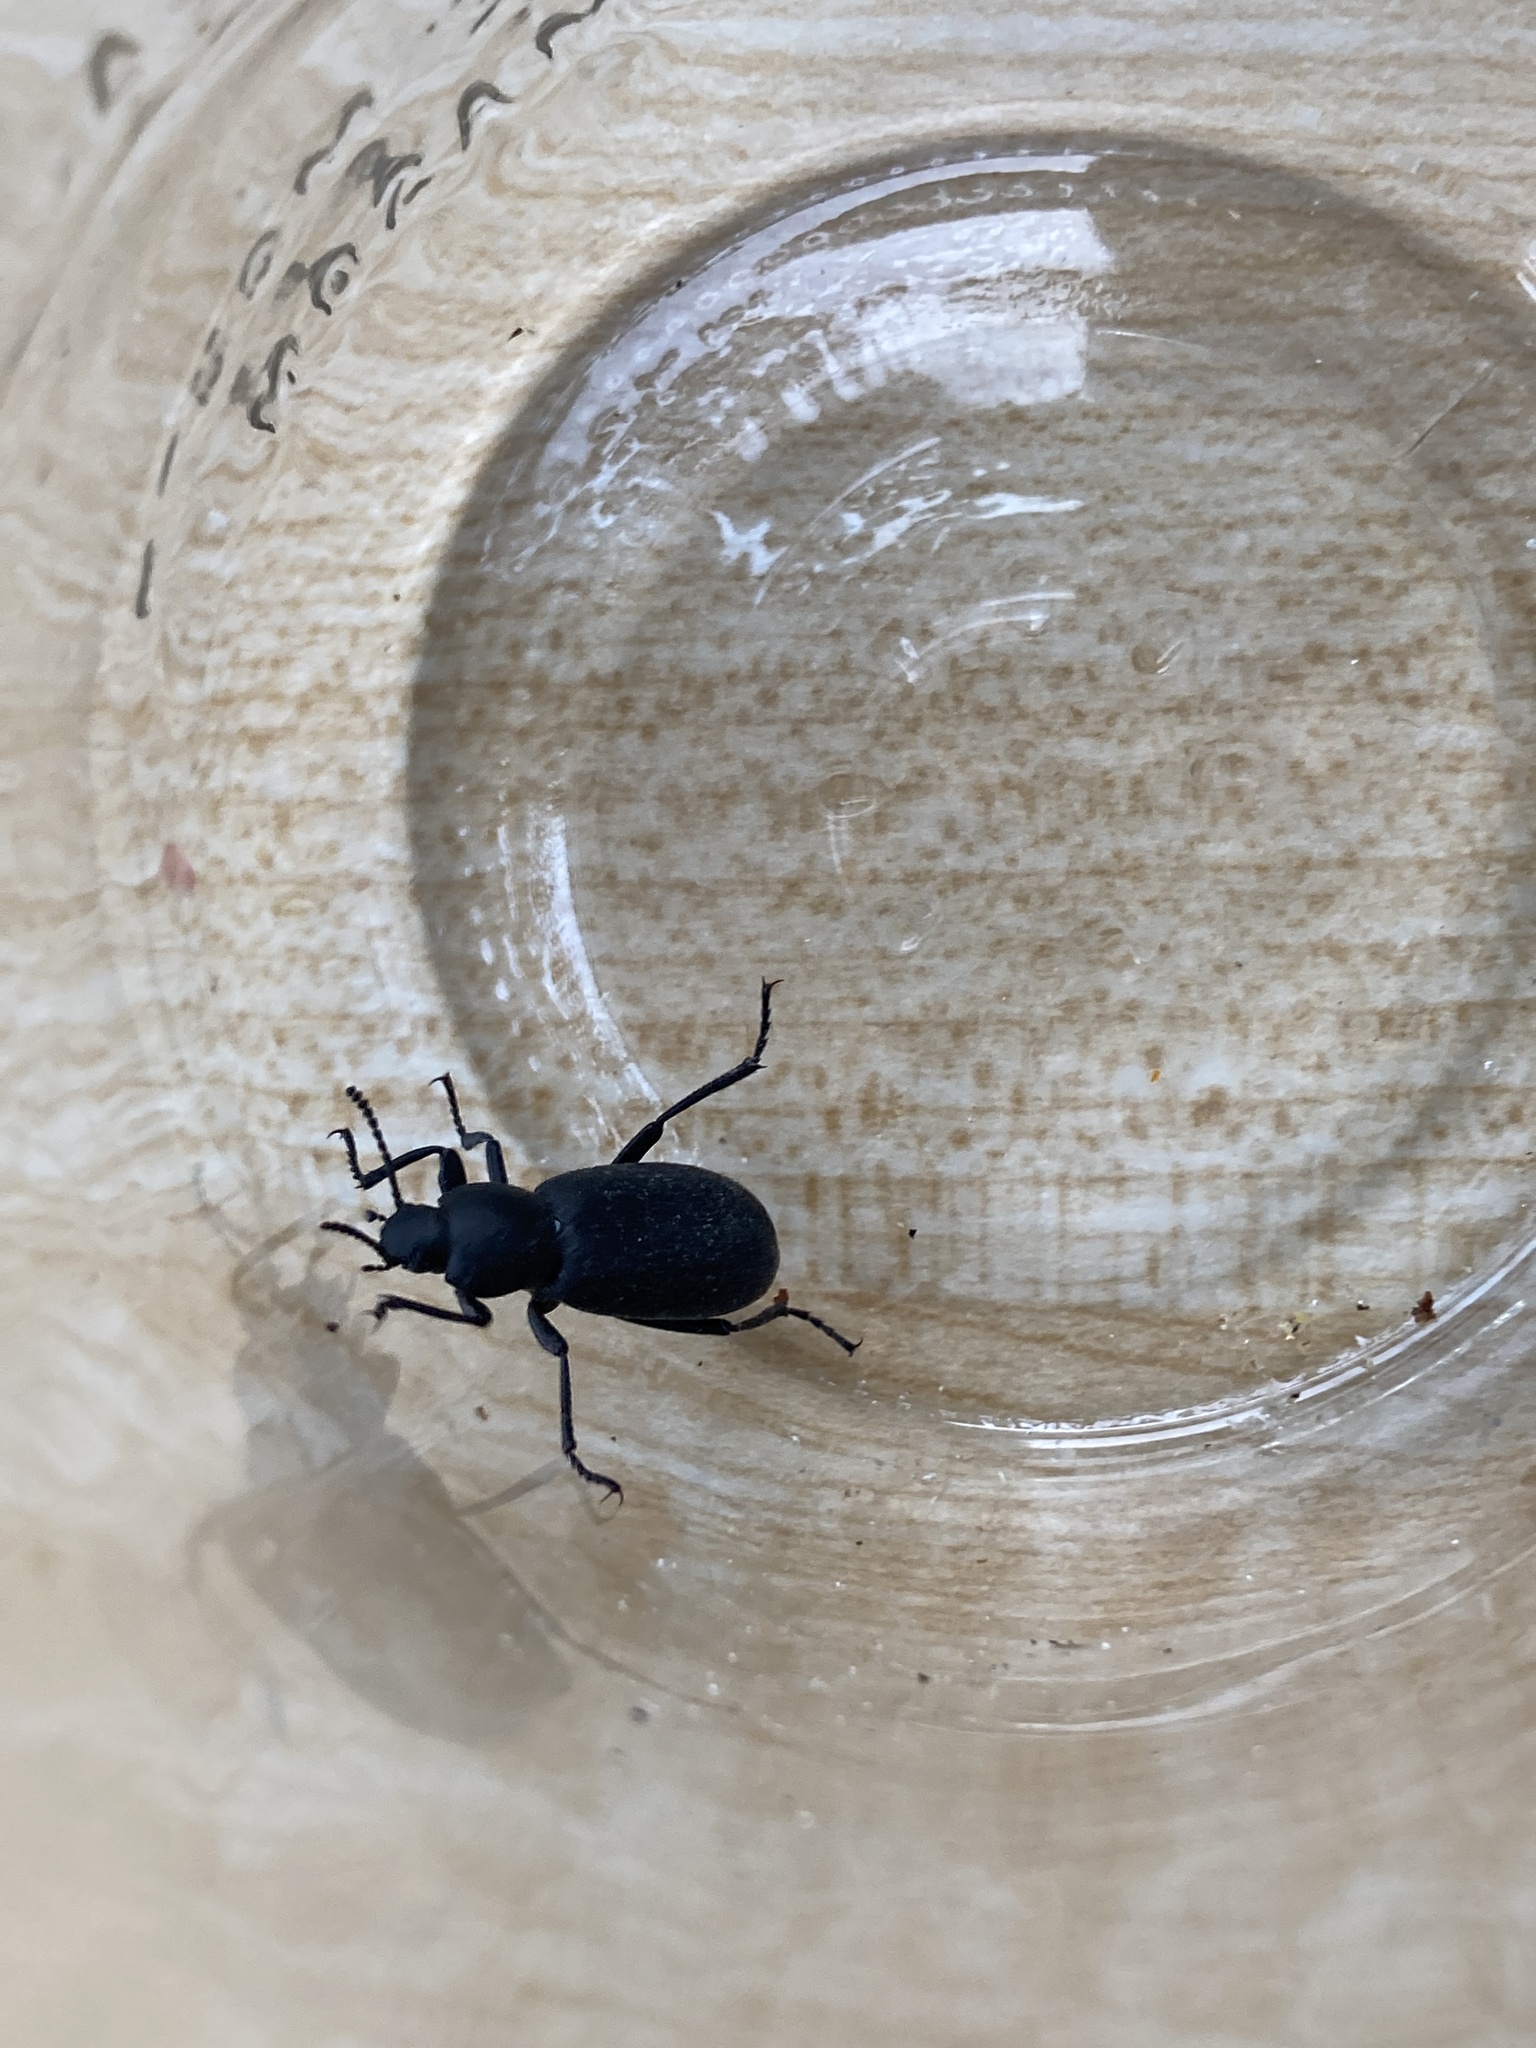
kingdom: Animalia
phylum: Arthropoda
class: Insecta
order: Coleoptera
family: Tenebrionidae
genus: Eleodes
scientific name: Eleodes nigrina
